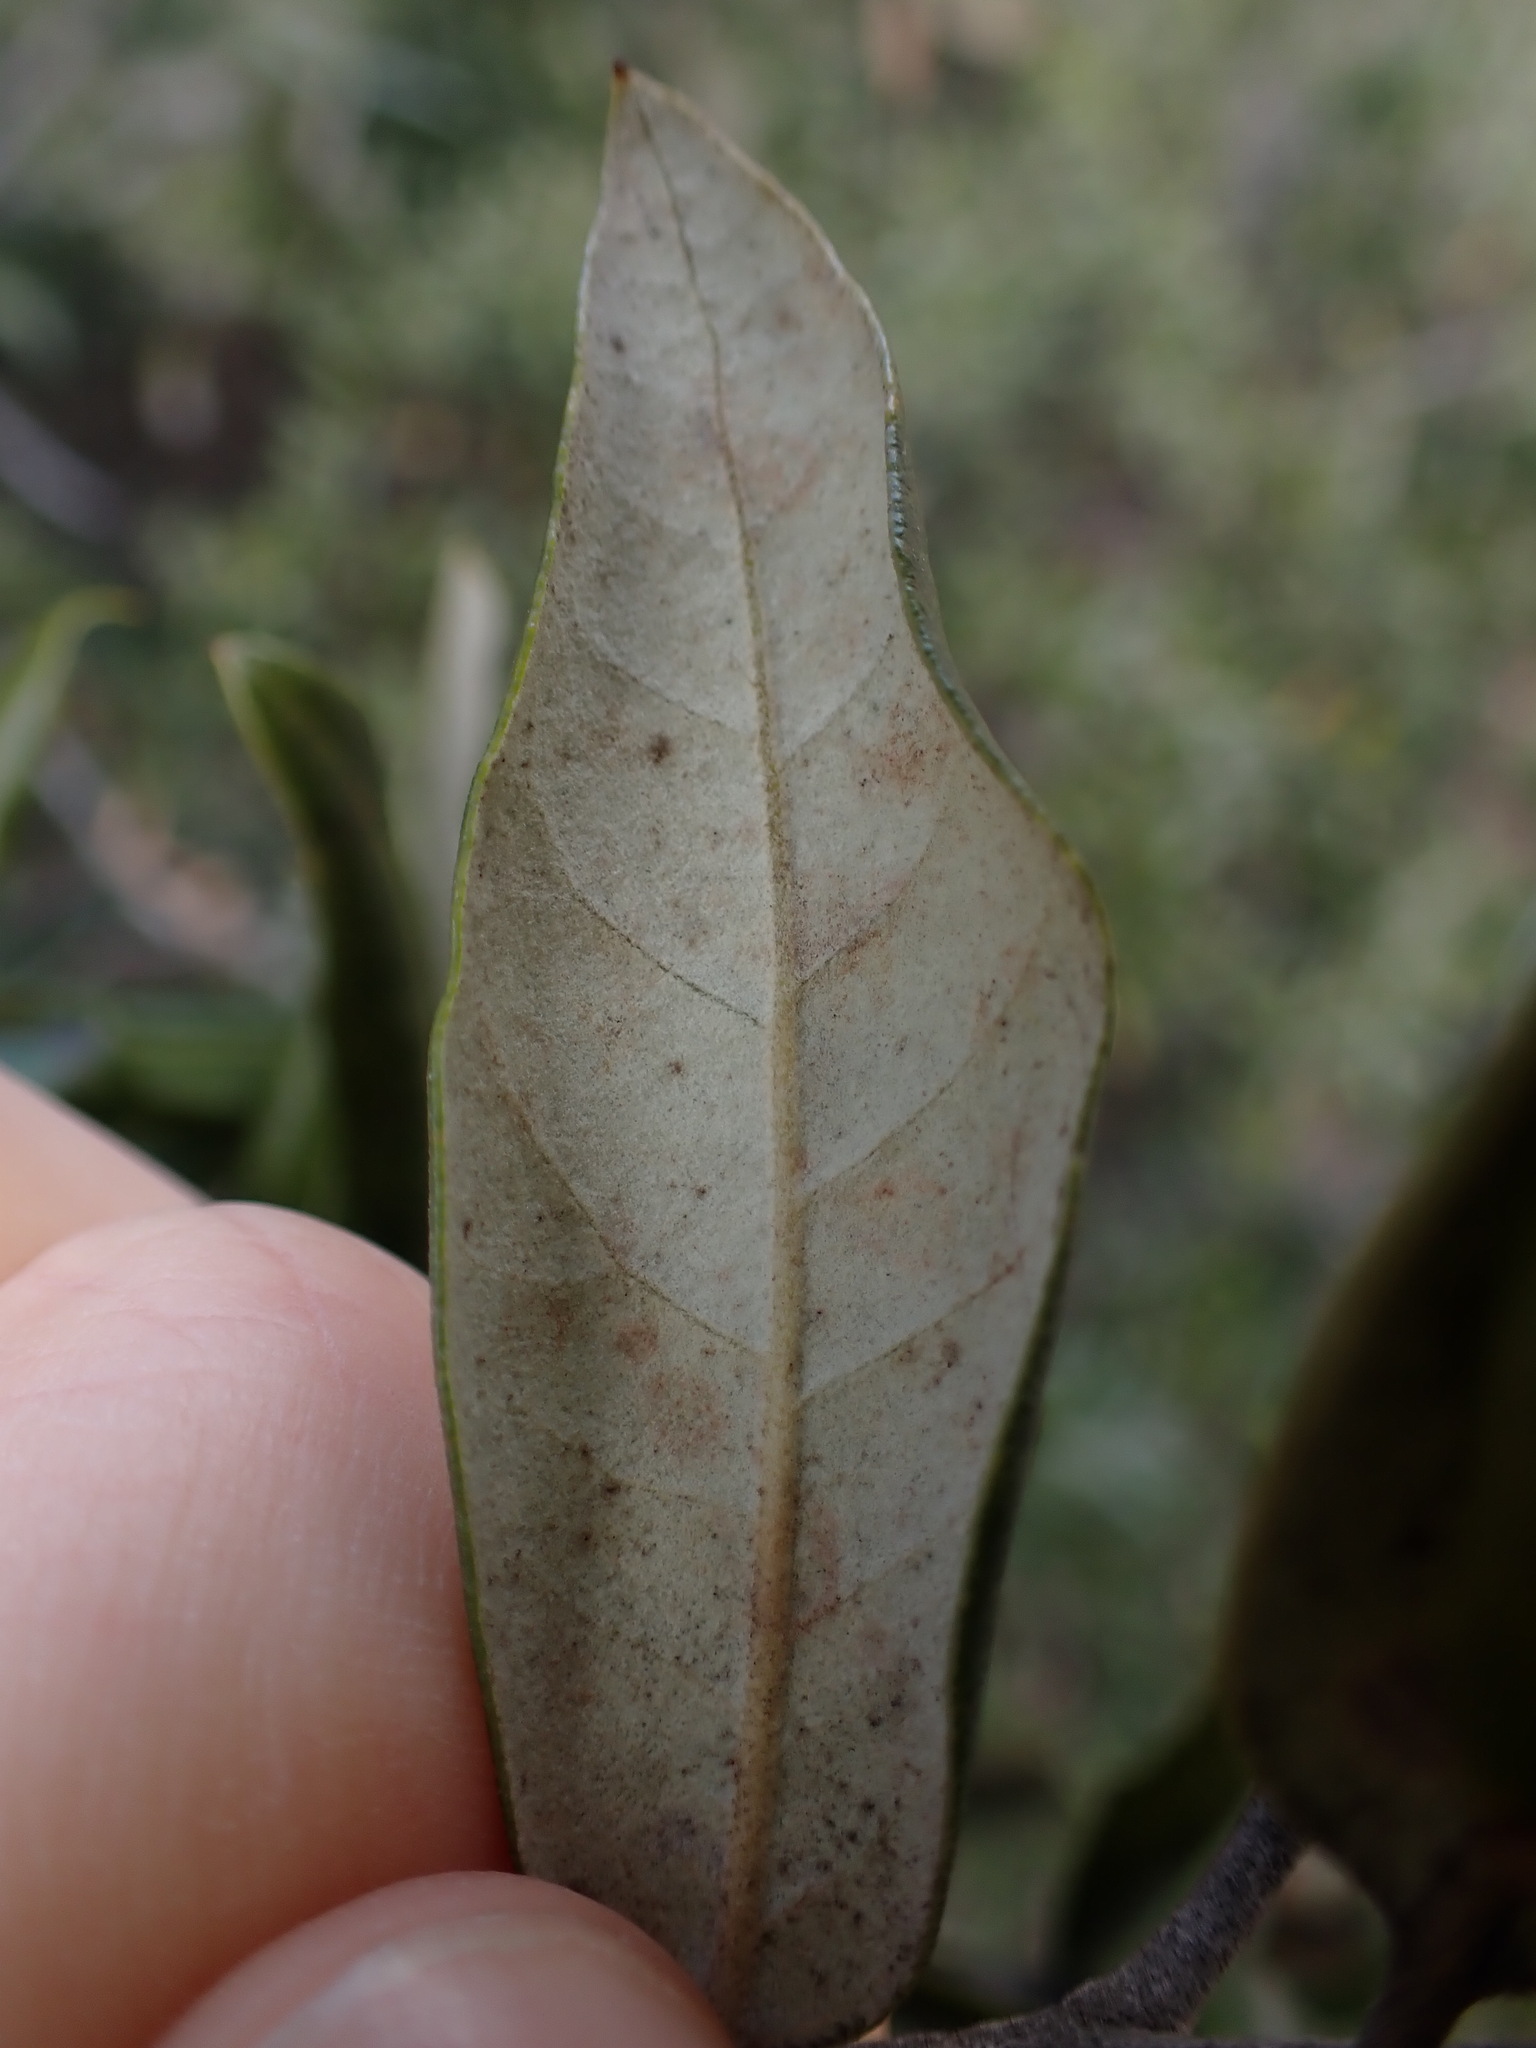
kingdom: Plantae
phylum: Tracheophyta
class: Magnoliopsida
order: Fagales
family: Fagaceae
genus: Quercus
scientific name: Quercus ilex
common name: Evergreen oak
